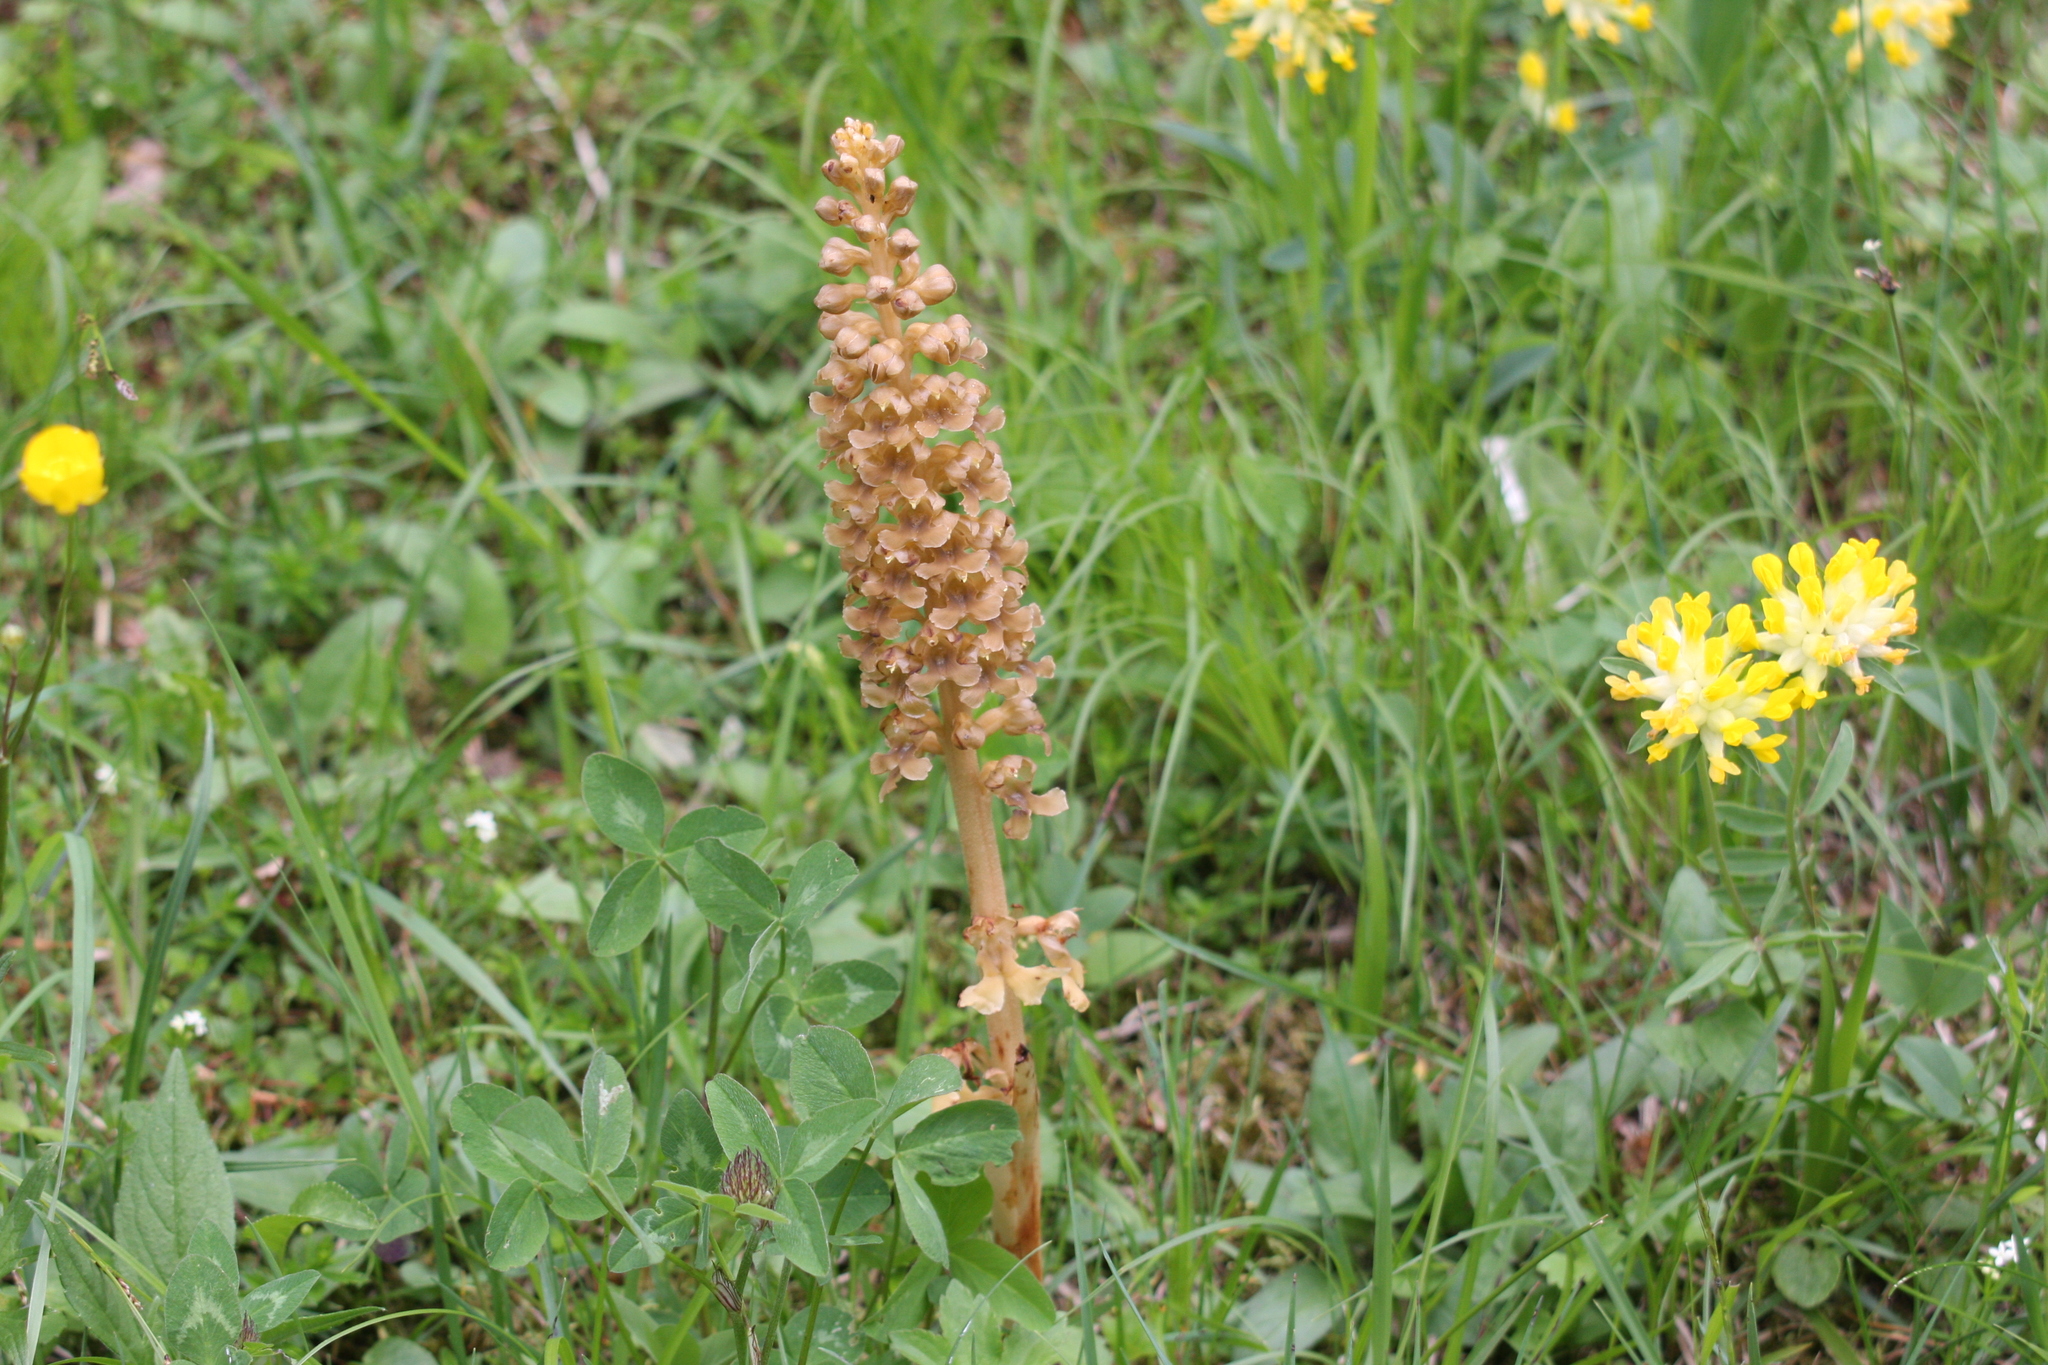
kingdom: Plantae
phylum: Tracheophyta
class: Liliopsida
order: Asparagales
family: Orchidaceae
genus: Neottia
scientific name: Neottia nidus-avis
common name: Bird's-nest orchid
